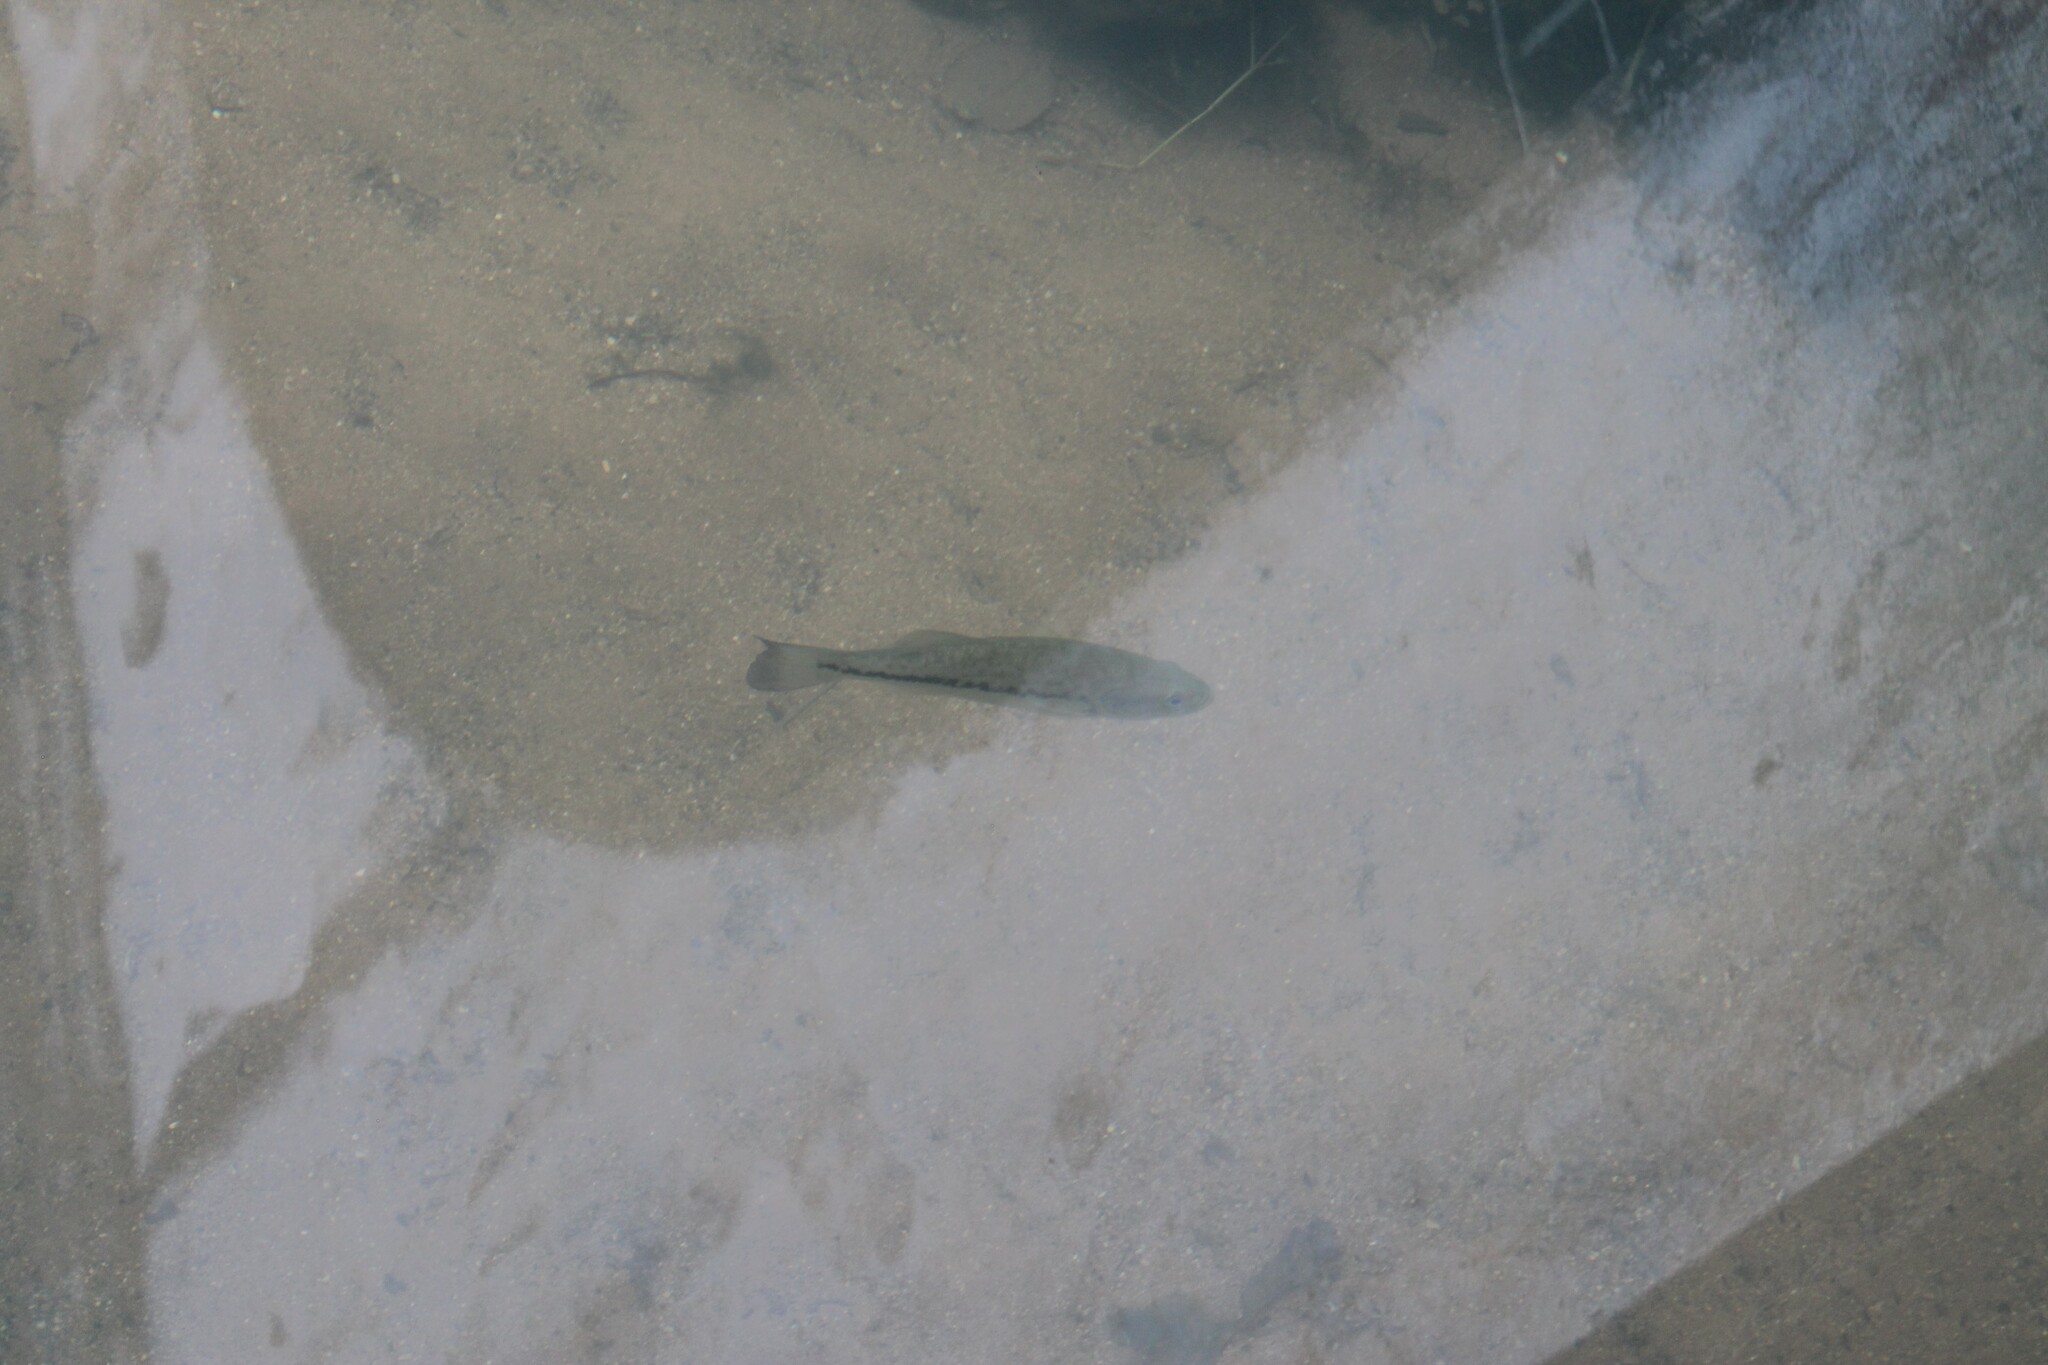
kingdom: Animalia
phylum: Chordata
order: Perciformes
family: Centrarchidae
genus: Micropterus
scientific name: Micropterus
